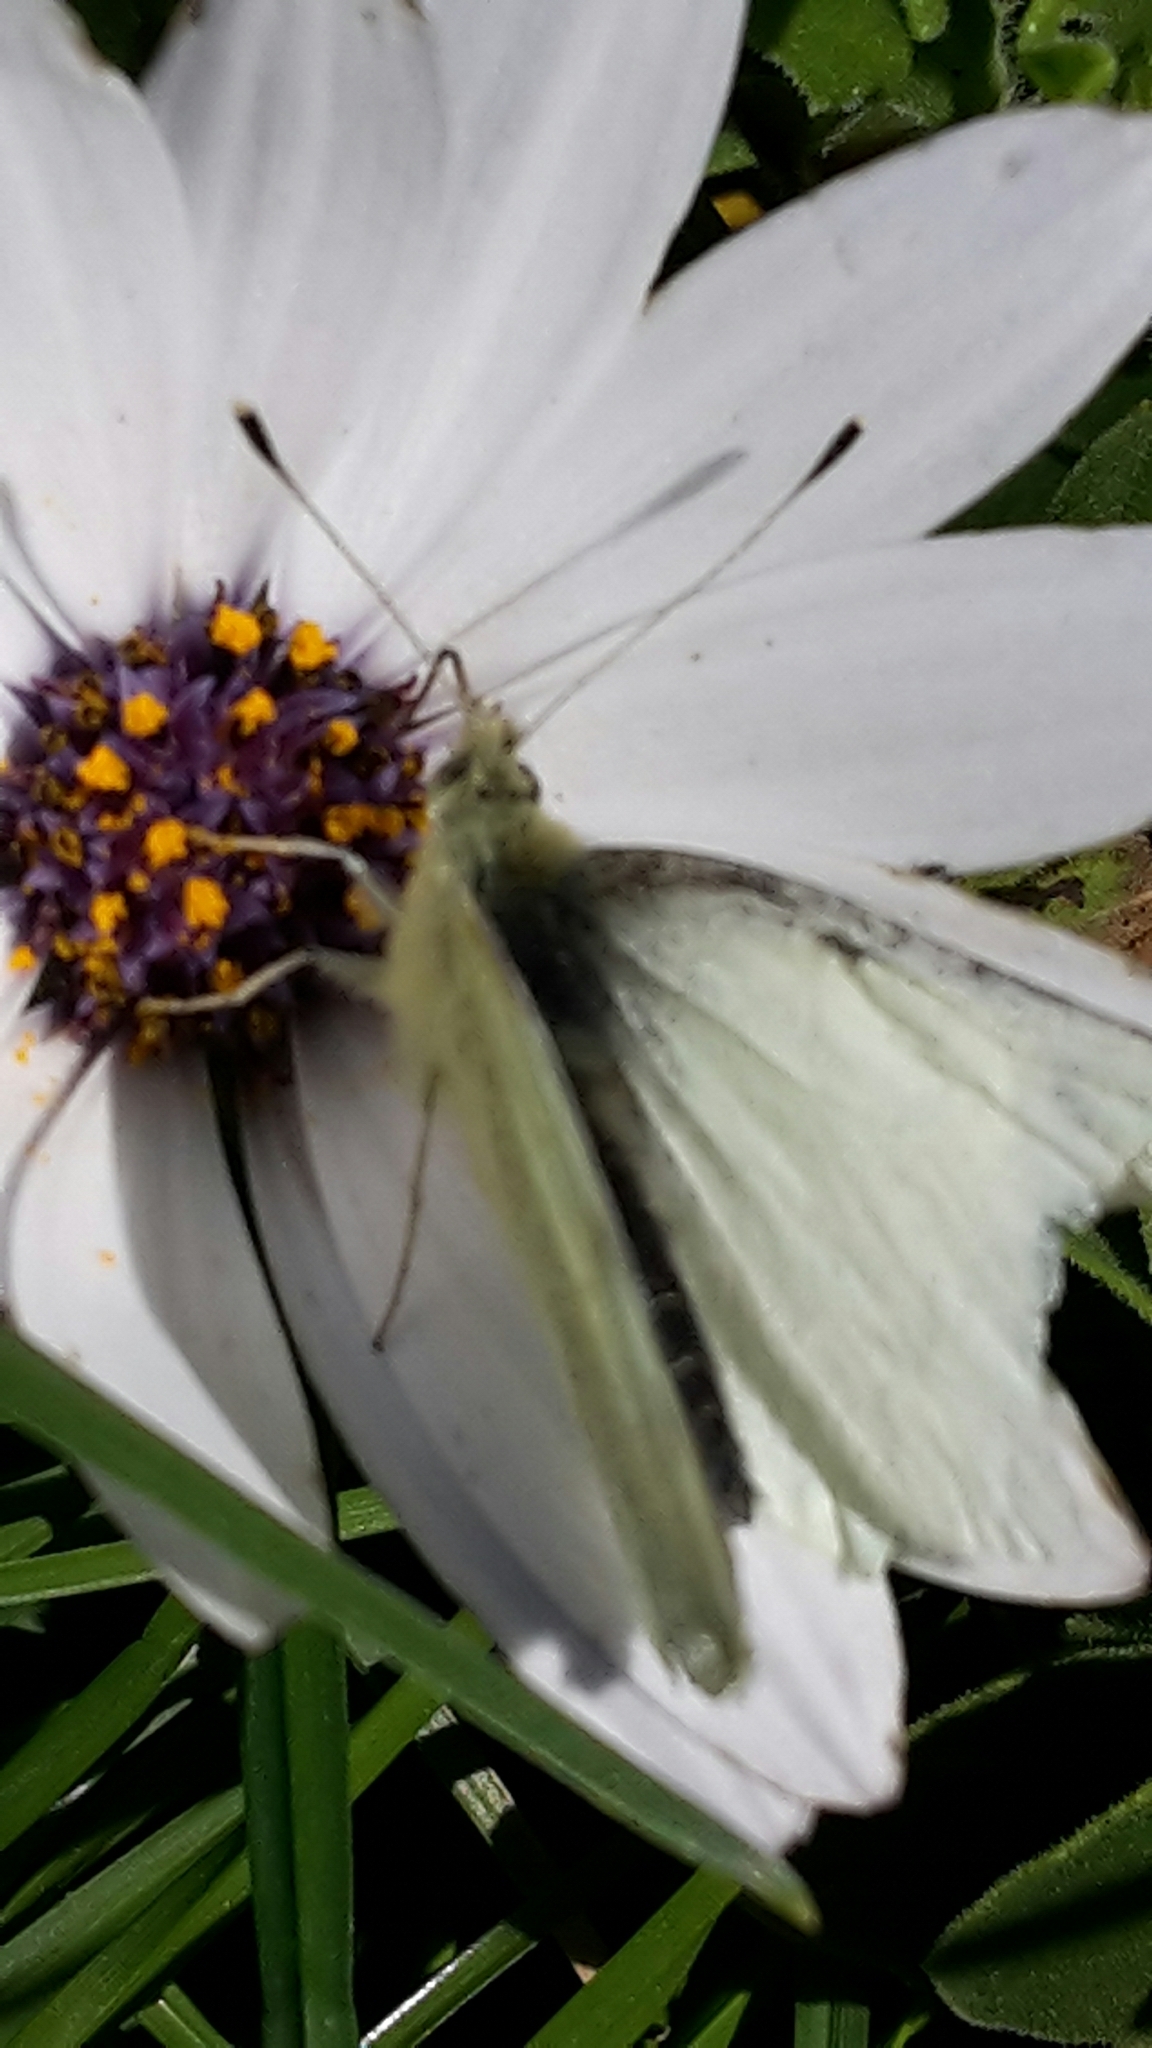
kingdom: Animalia
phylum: Arthropoda
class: Insecta
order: Lepidoptera
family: Pieridae
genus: Pieris
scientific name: Pieris rapae
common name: Small white
